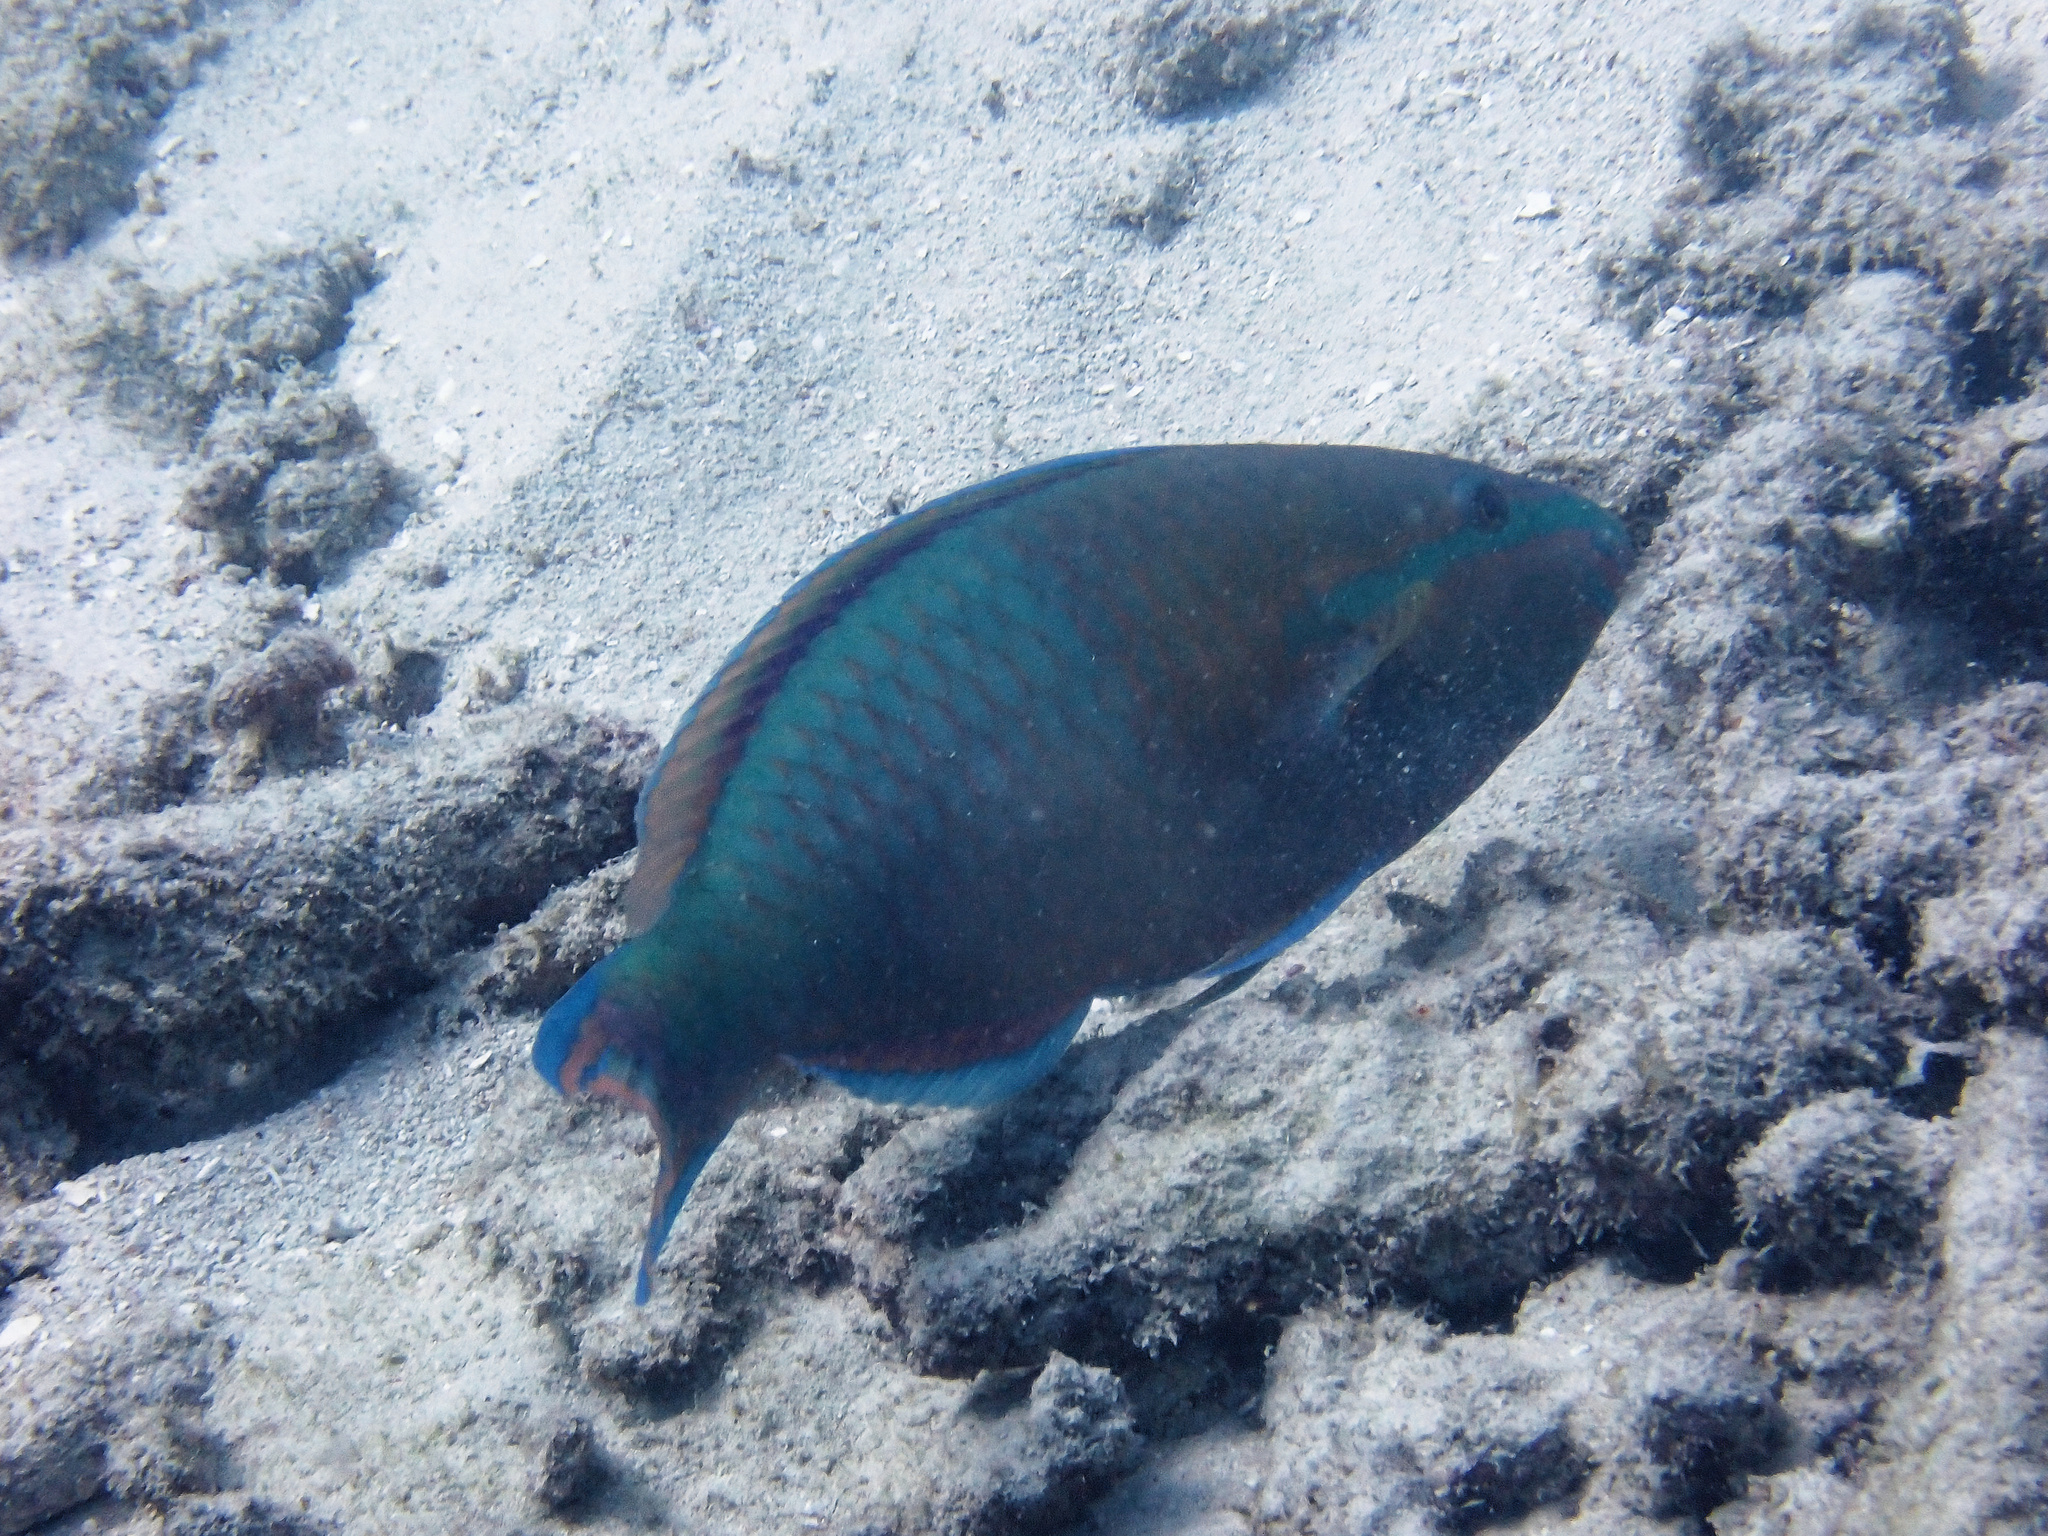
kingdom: Animalia
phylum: Chordata
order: Perciformes
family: Scaridae
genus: Scarus
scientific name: Scarus flavipectoralis
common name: Yellowfin parrotfish
